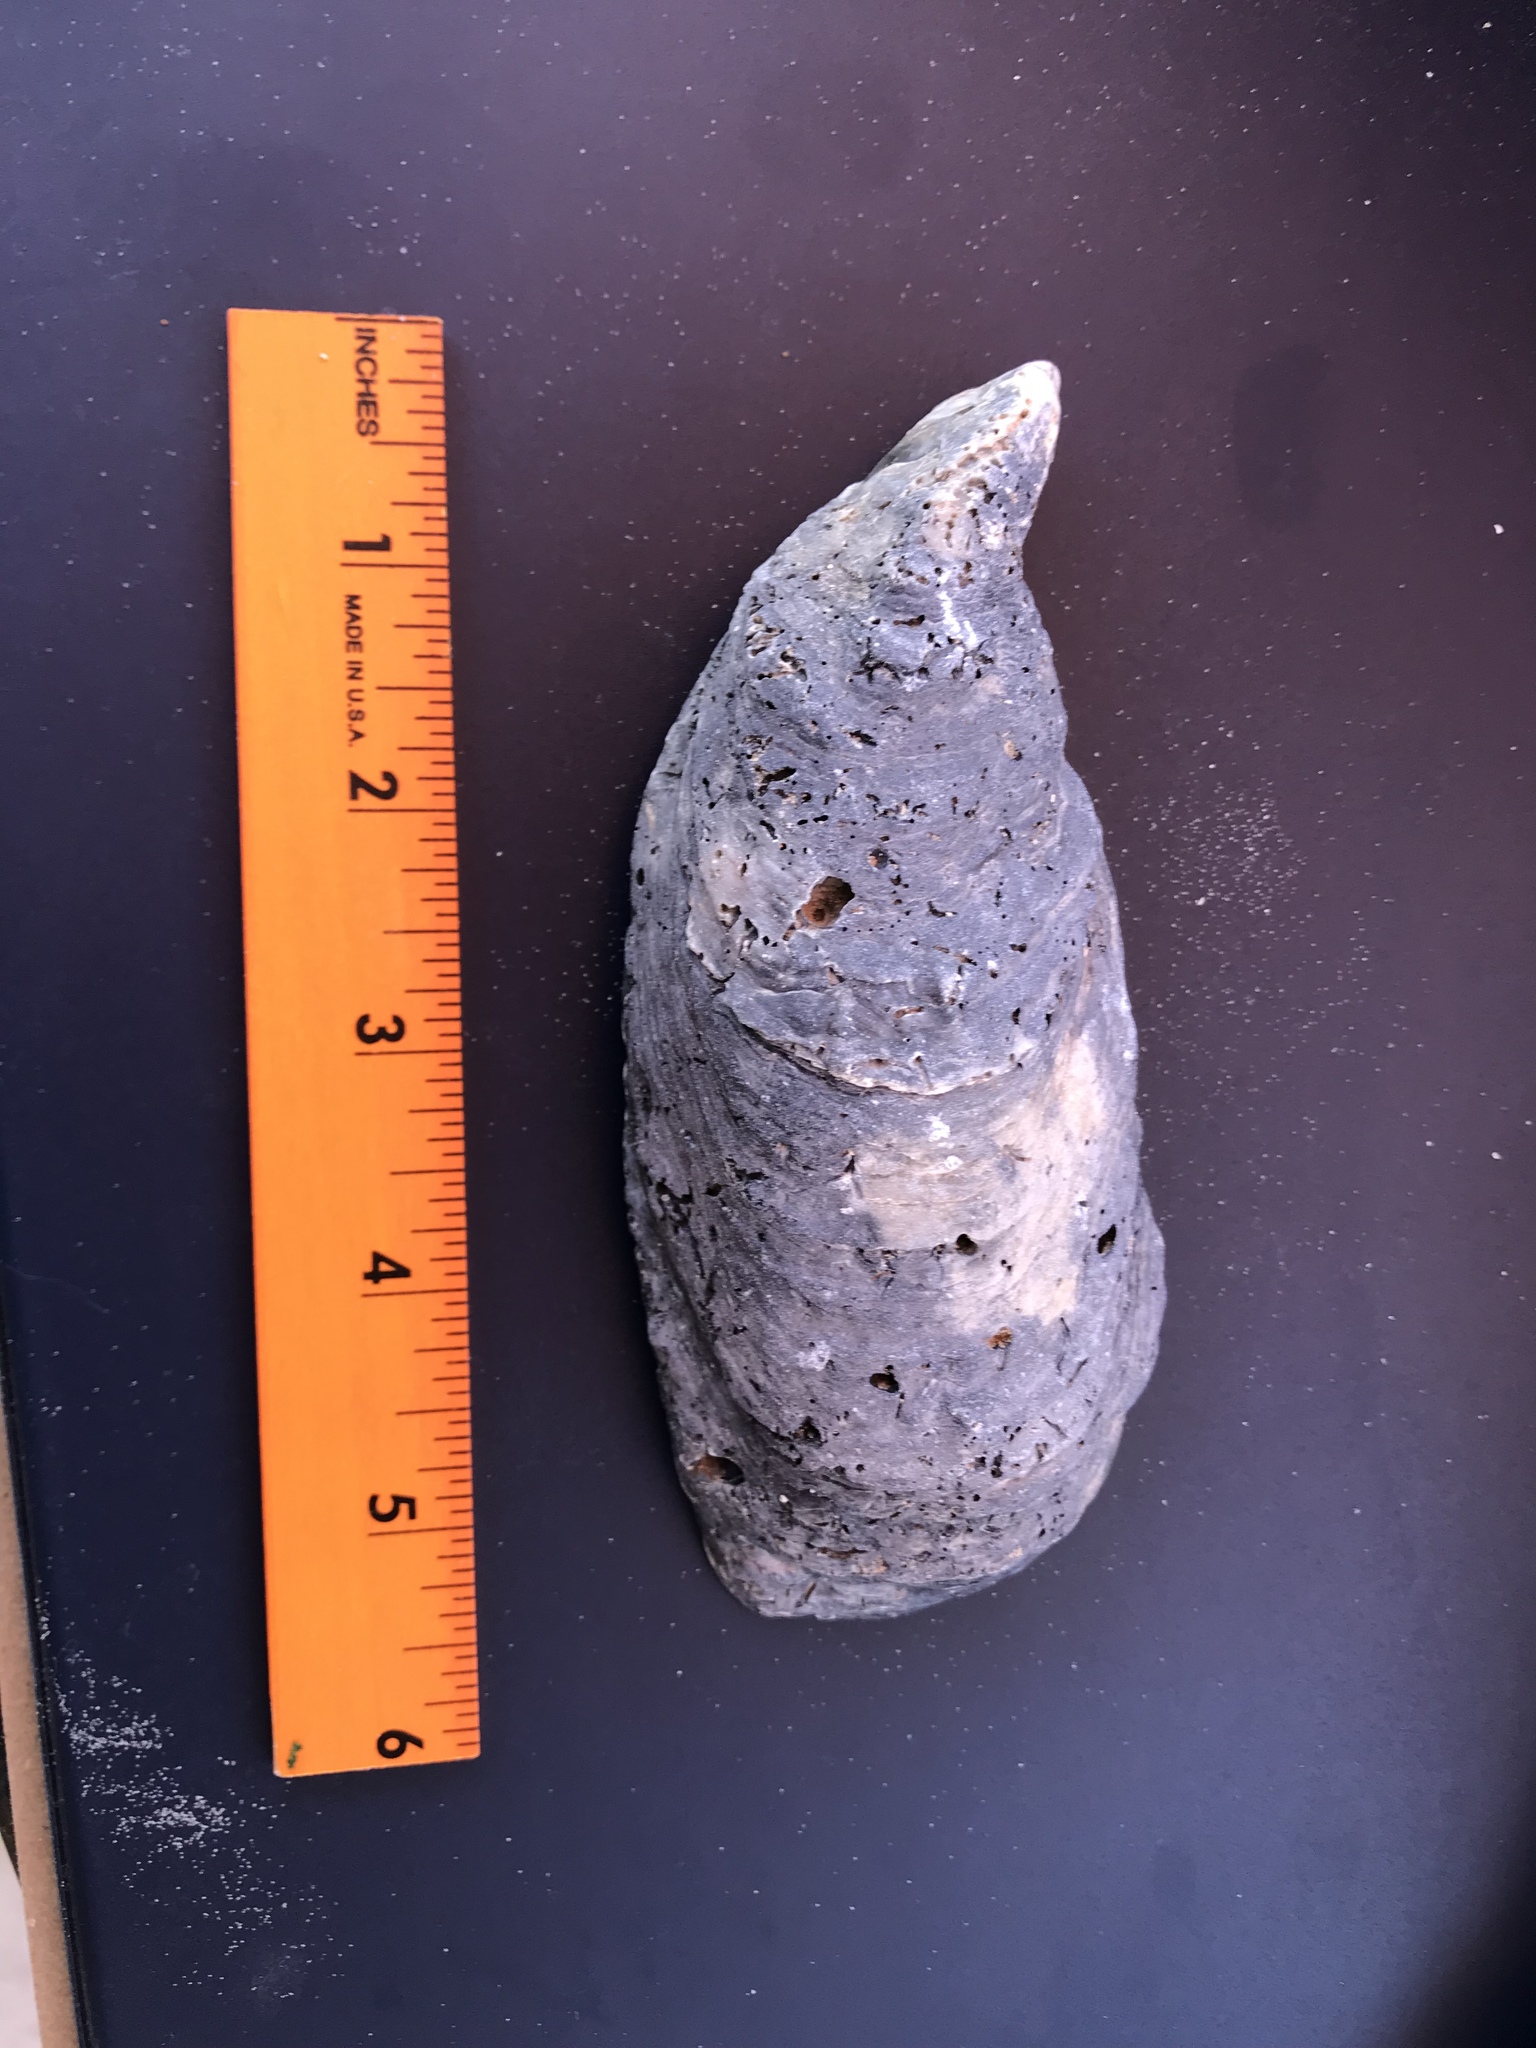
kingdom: Animalia
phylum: Mollusca
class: Bivalvia
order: Ostreida
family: Ostreidae
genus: Crassostrea
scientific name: Crassostrea virginica
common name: American oyster
